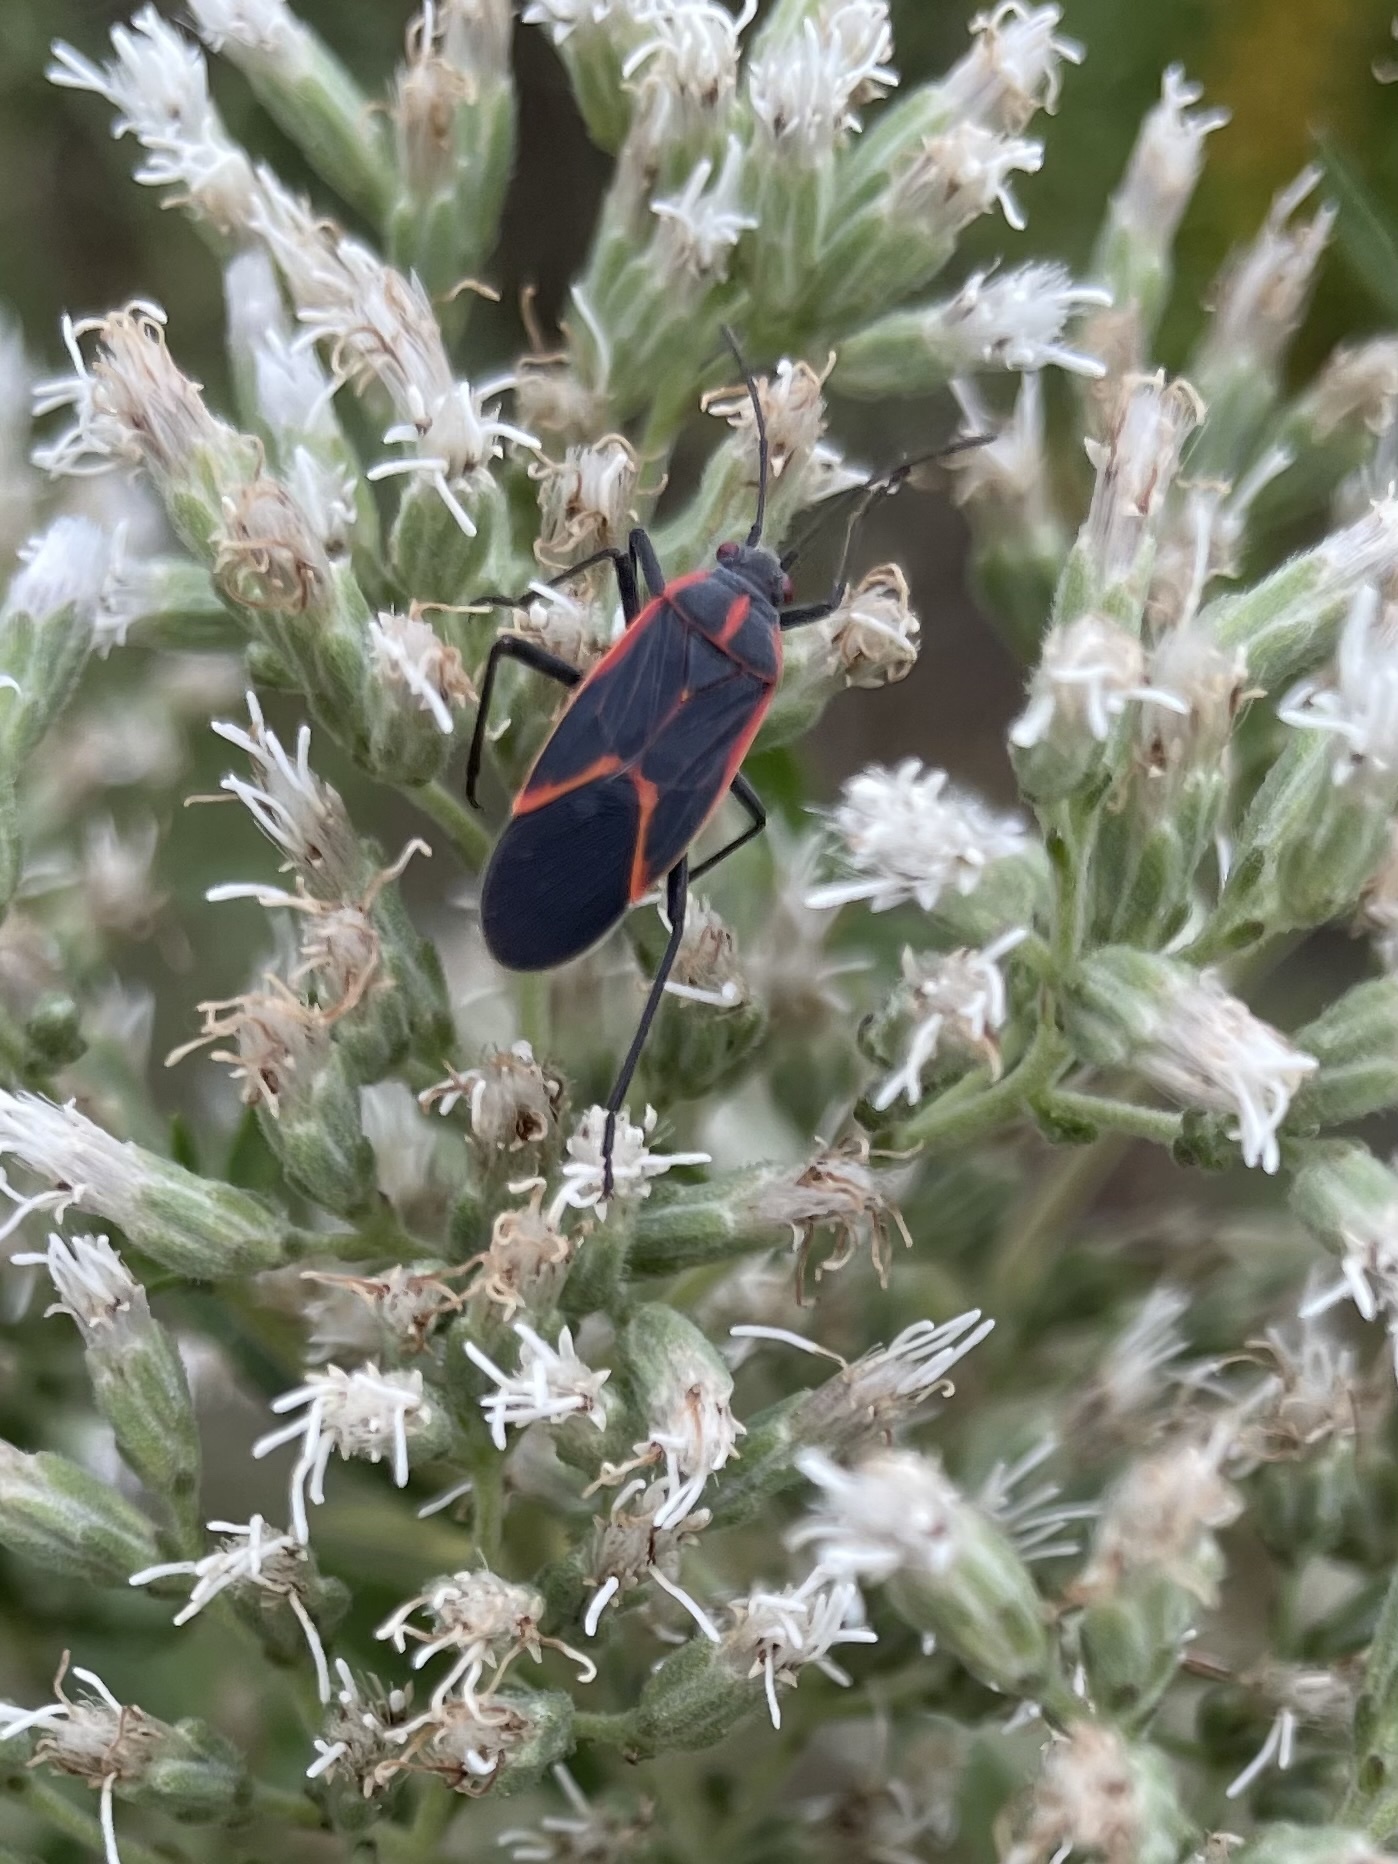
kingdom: Animalia
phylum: Arthropoda
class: Insecta
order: Hemiptera
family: Rhopalidae
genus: Boisea
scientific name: Boisea trivittata
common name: Boxelder bug
